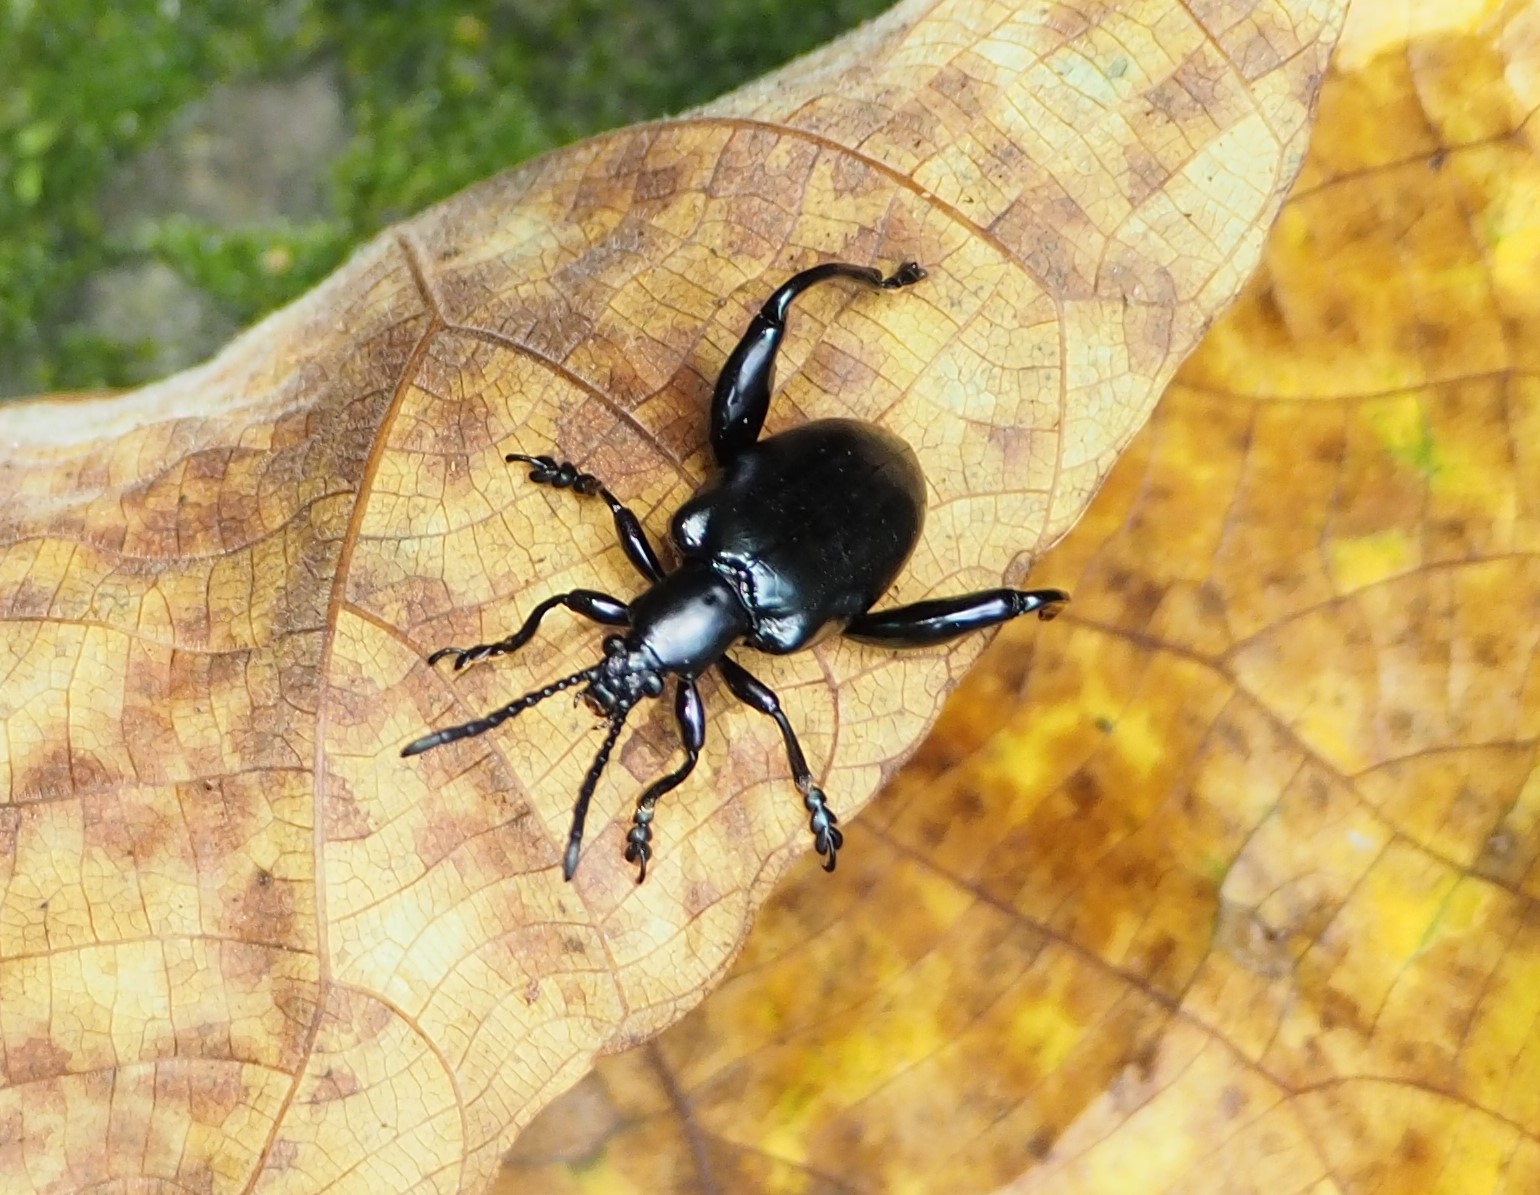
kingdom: Animalia
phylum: Arthropoda
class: Insecta
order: Coleoptera
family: Chrysomelidae
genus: Sagra
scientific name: Sagra femorata
